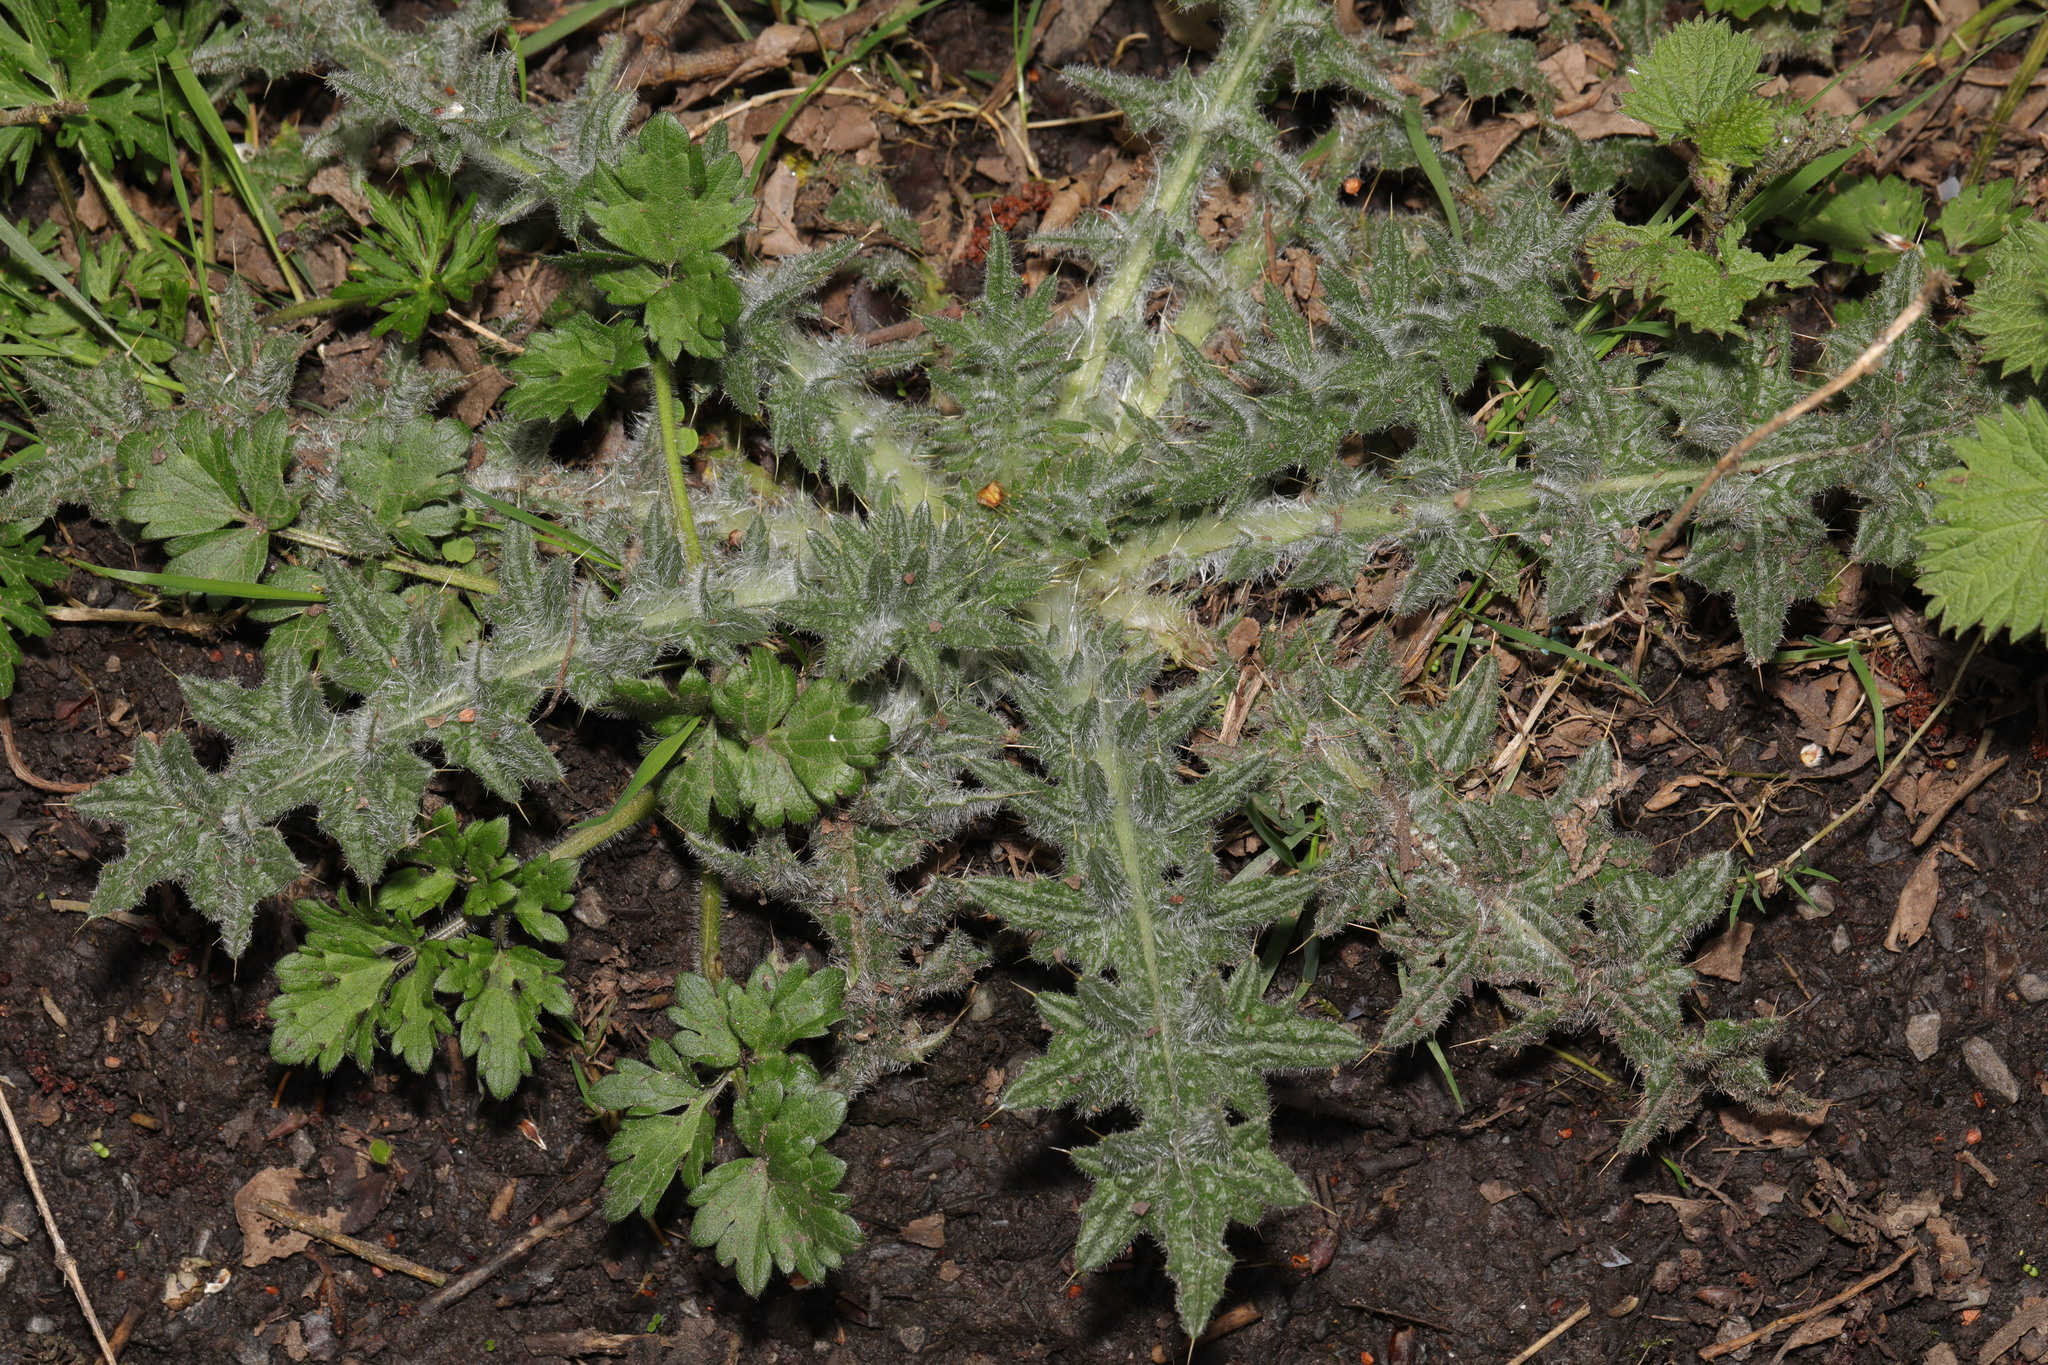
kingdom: Plantae
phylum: Tracheophyta
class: Magnoliopsida
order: Asterales
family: Asteraceae
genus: Cirsium
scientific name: Cirsium vulgare
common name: Bull thistle
